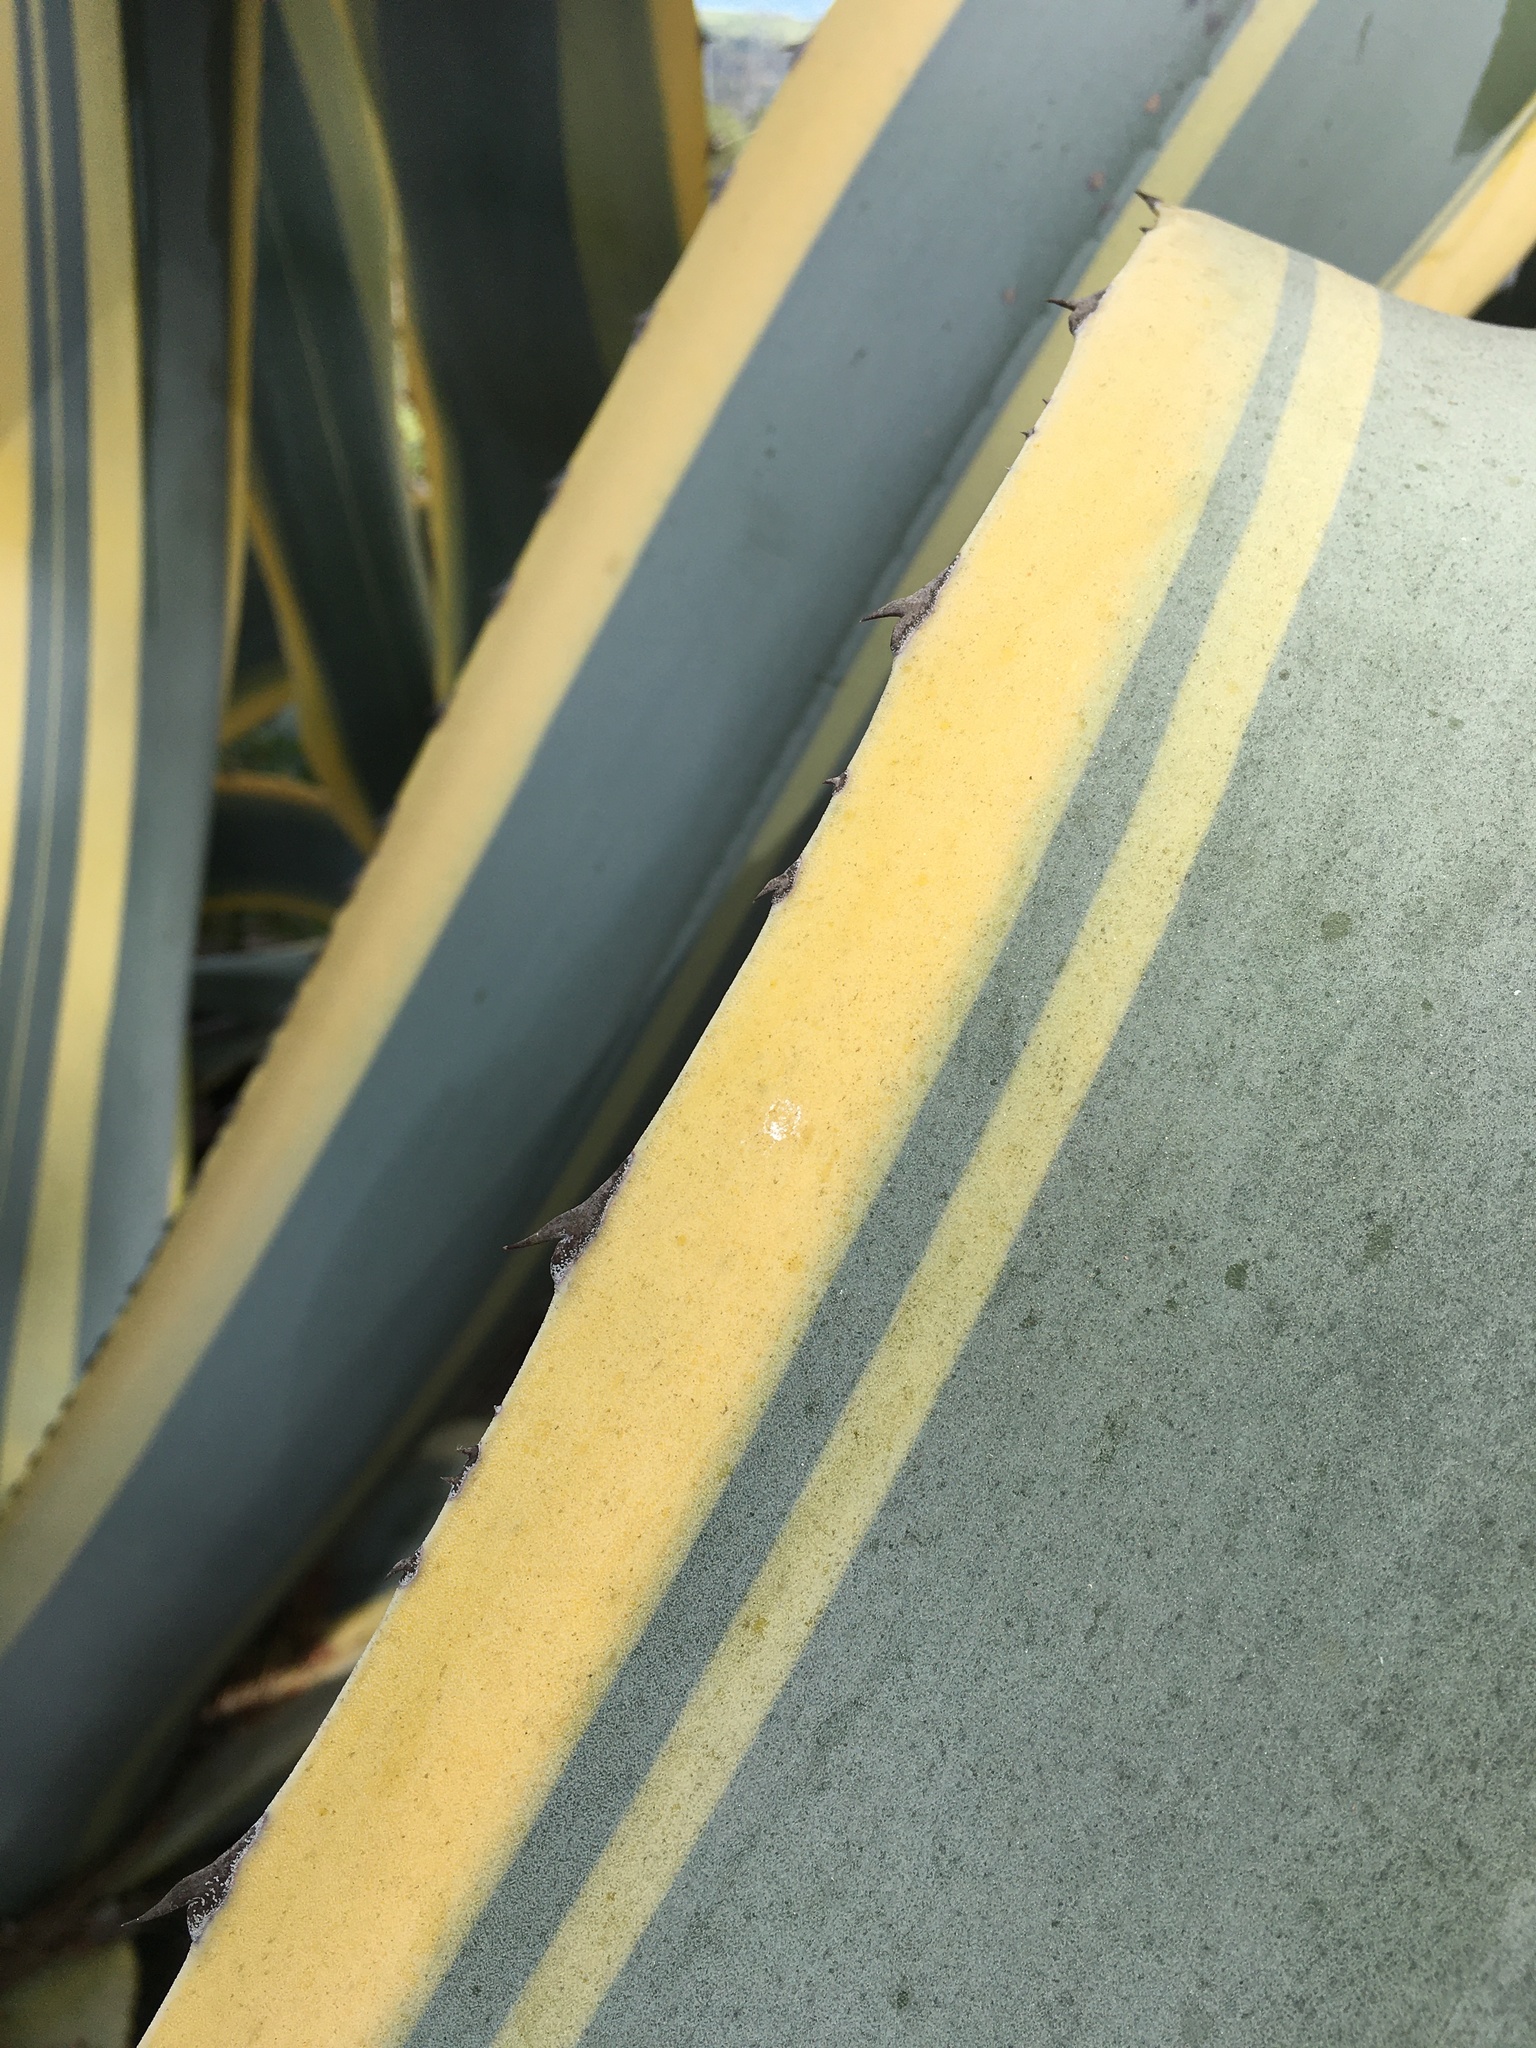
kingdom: Plantae
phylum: Tracheophyta
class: Liliopsida
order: Asparagales
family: Asparagaceae
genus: Agave
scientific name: Agave americana
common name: Centuryplant
